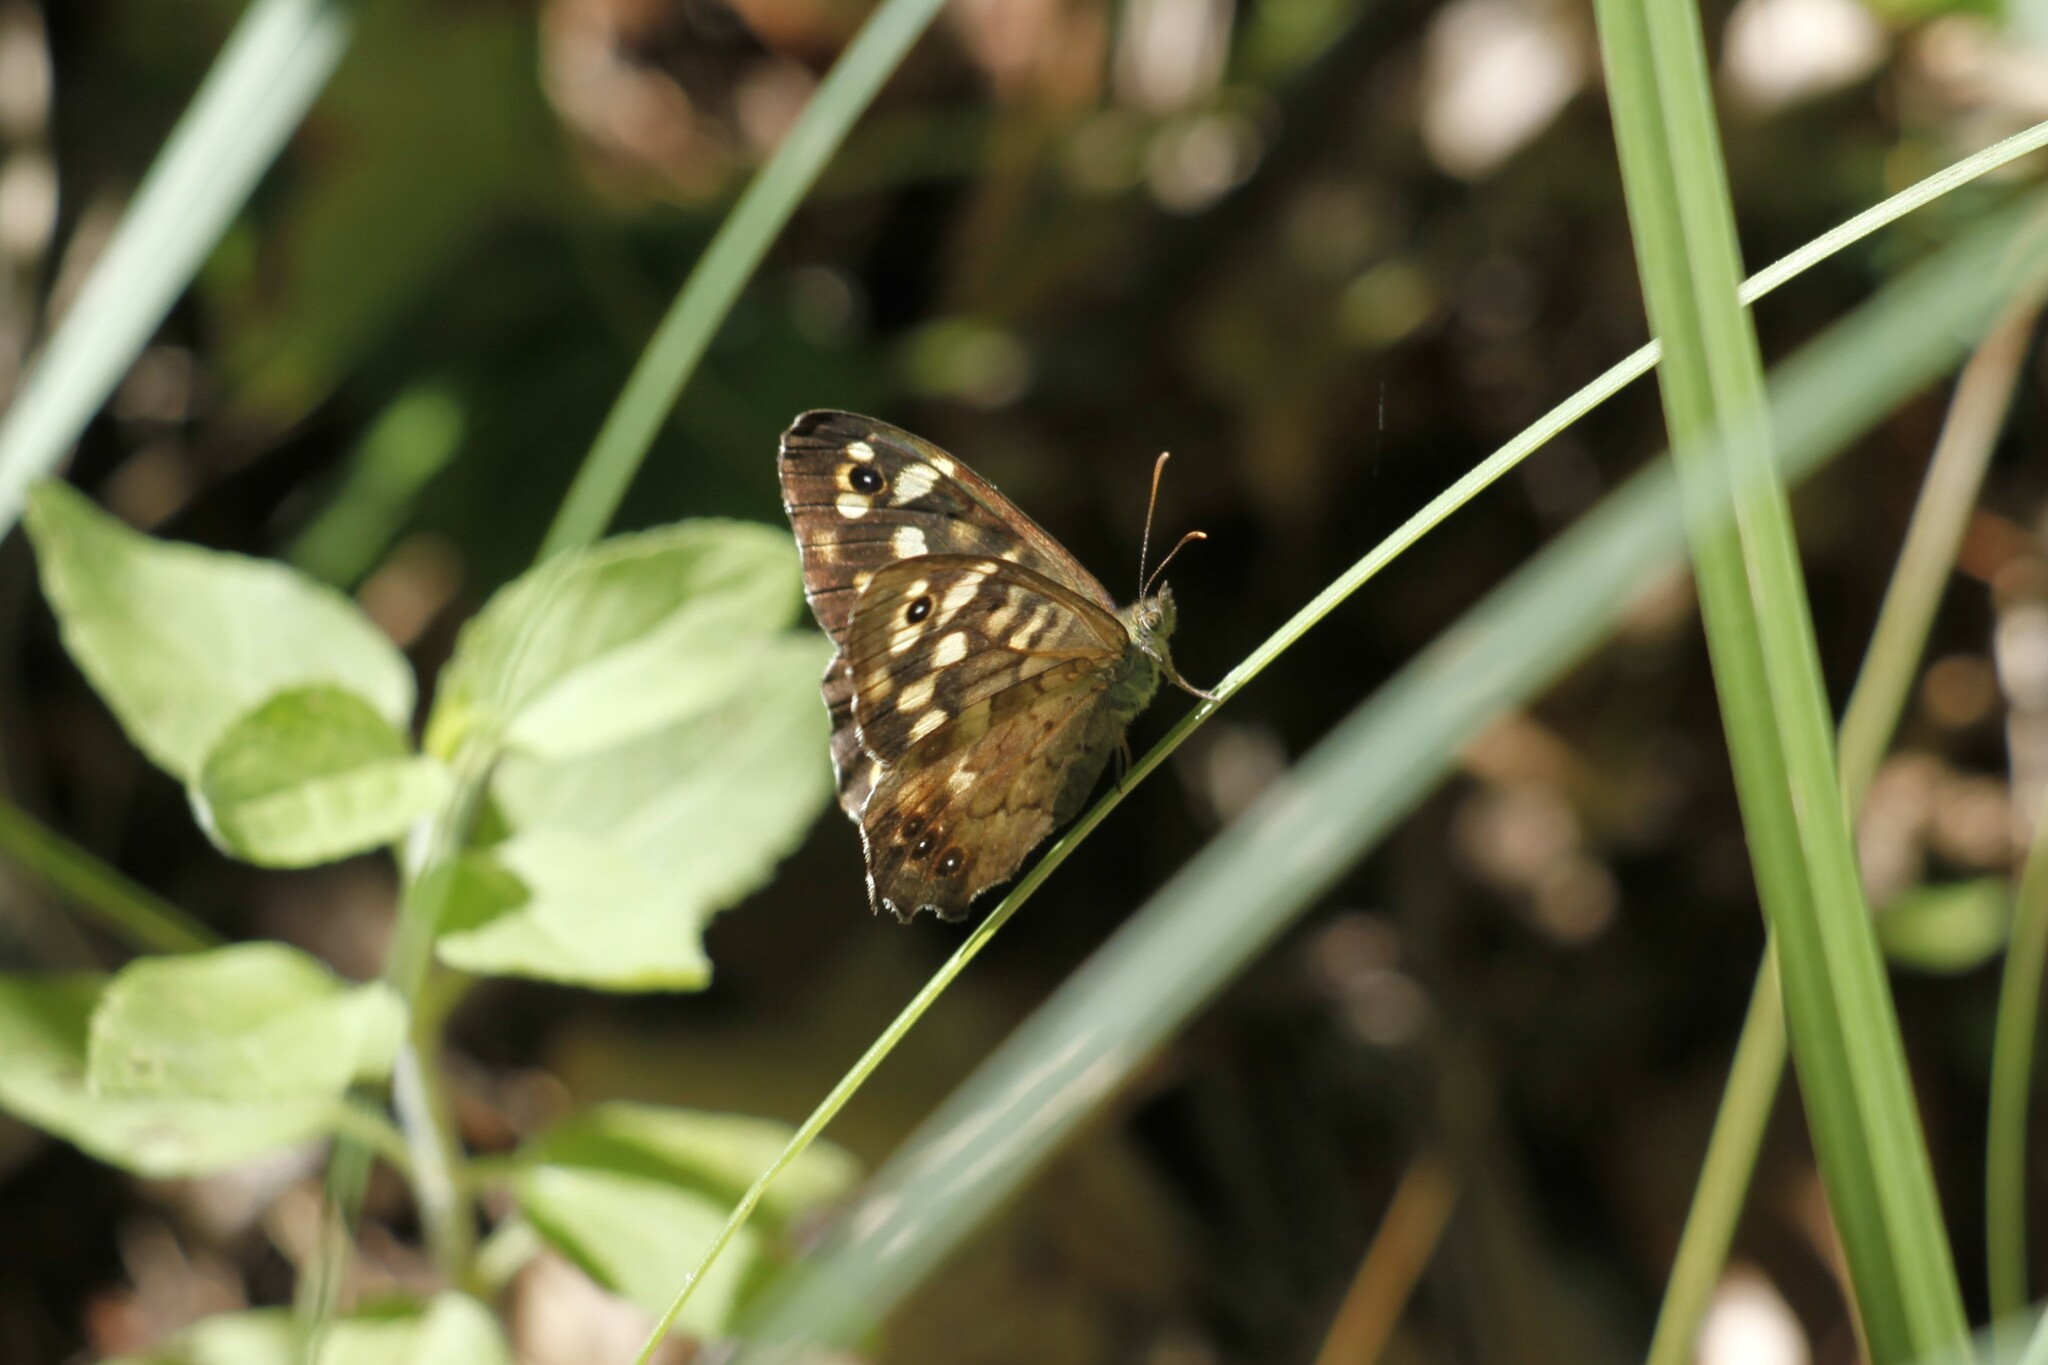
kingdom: Animalia
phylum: Arthropoda
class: Insecta
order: Lepidoptera
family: Nymphalidae
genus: Pararge
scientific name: Pararge aegeria
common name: Speckled wood
